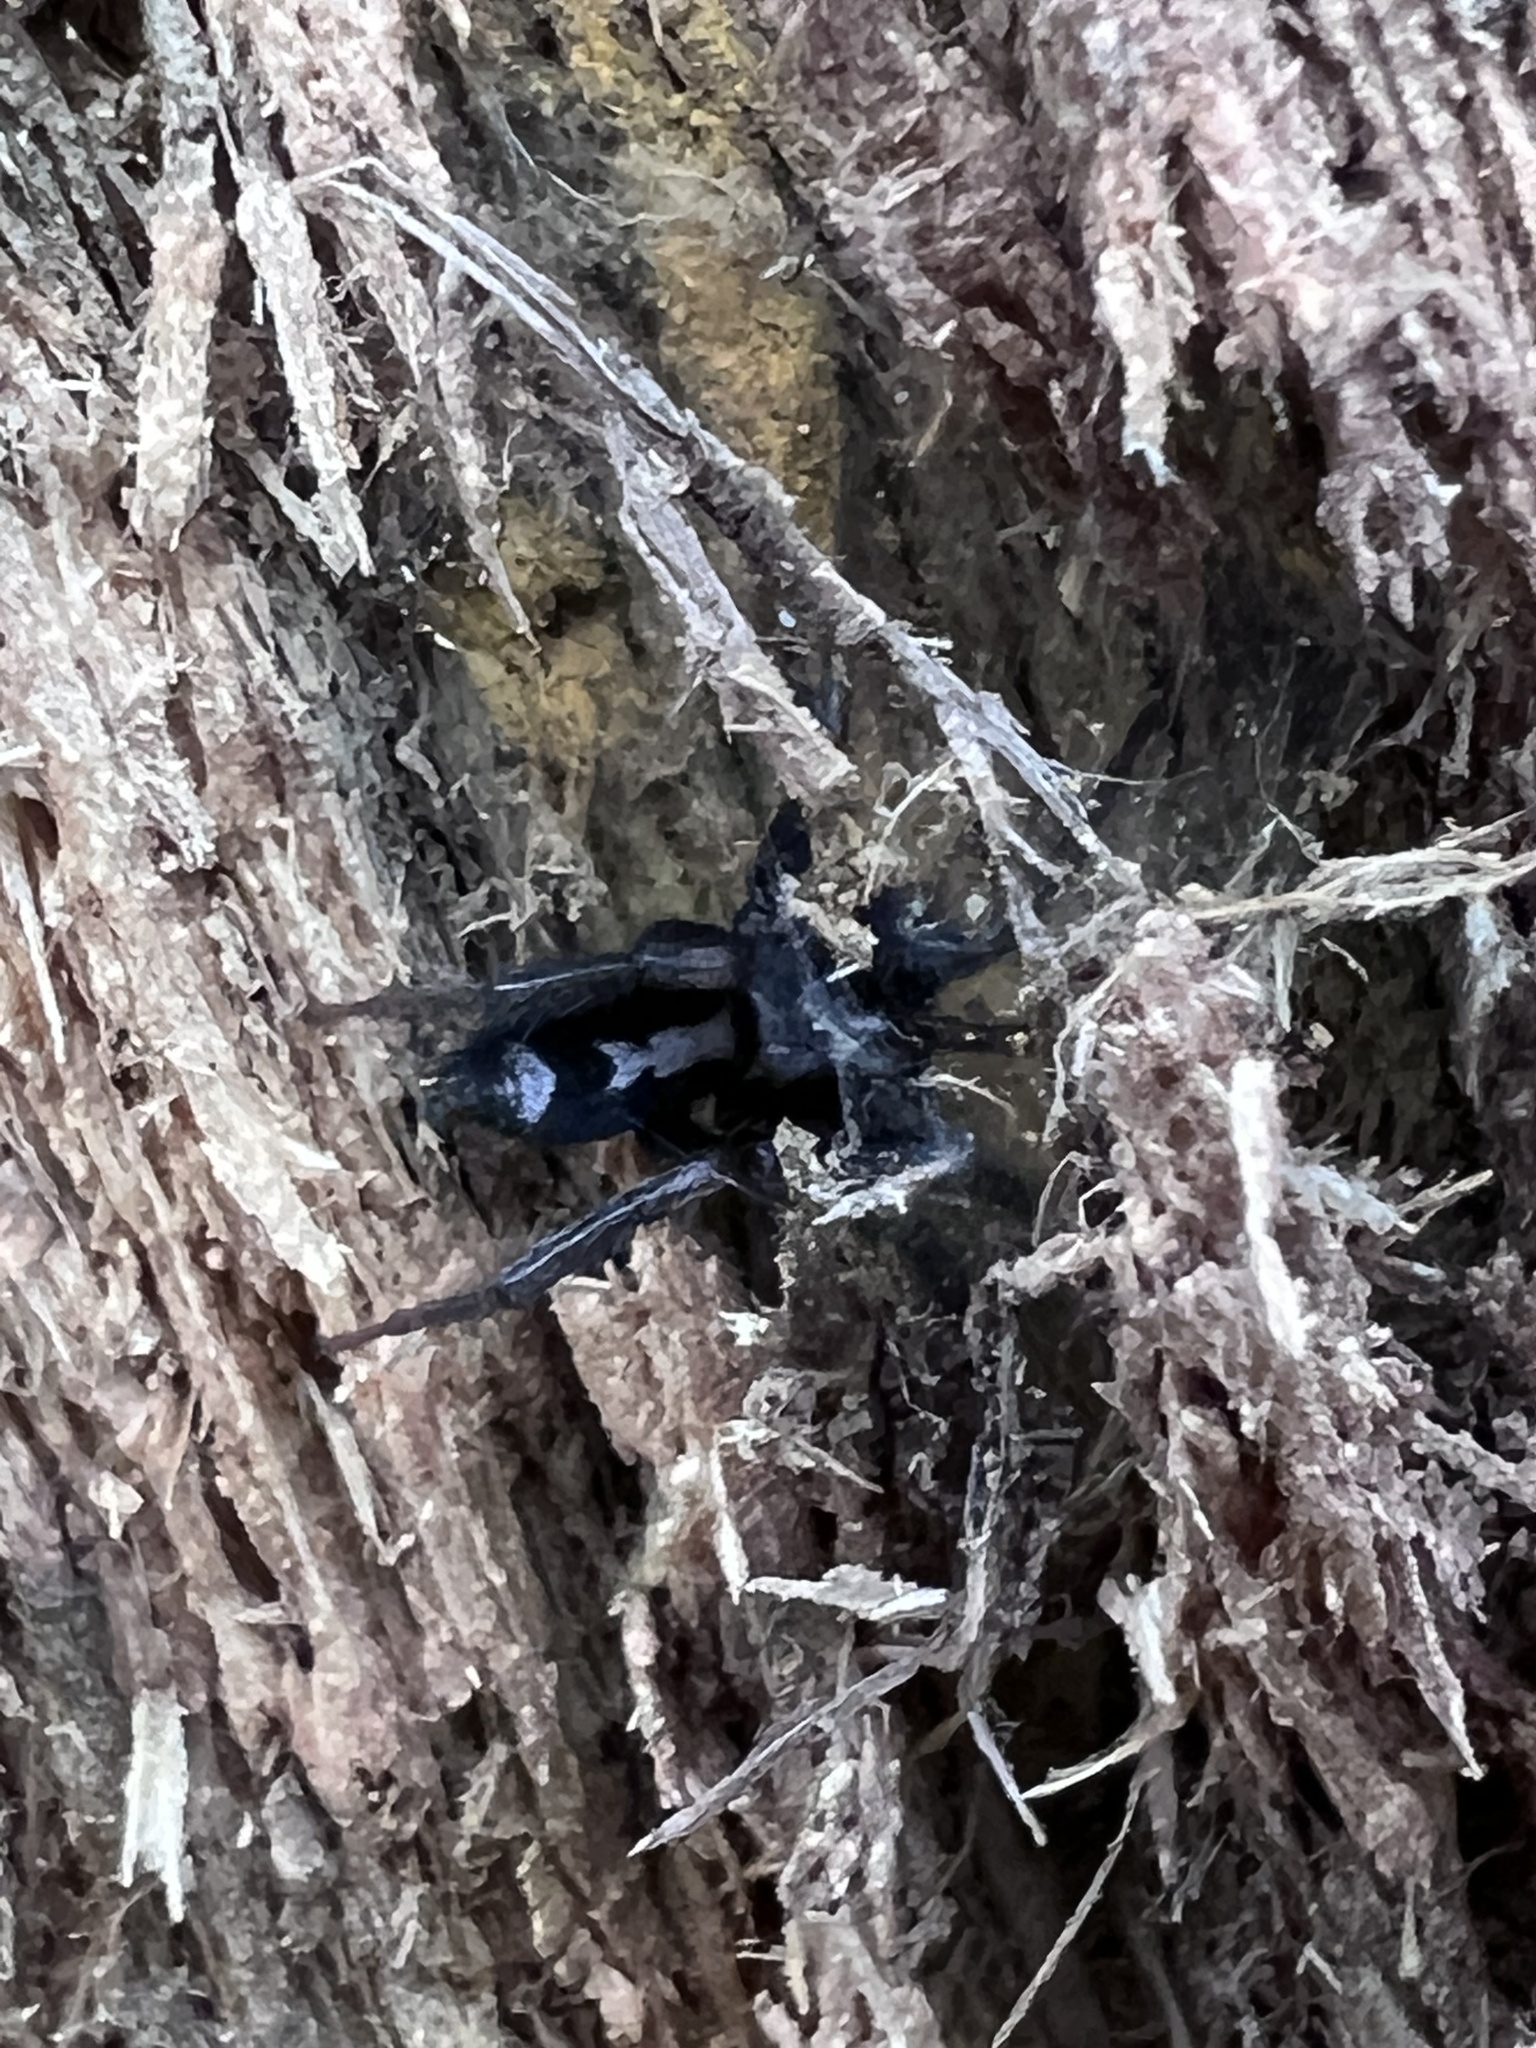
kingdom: Animalia
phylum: Arthropoda
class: Arachnida
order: Araneae
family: Gnaphosidae
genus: Herpyllus
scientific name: Herpyllus ecclesiasticus
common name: Eastern parson spider
